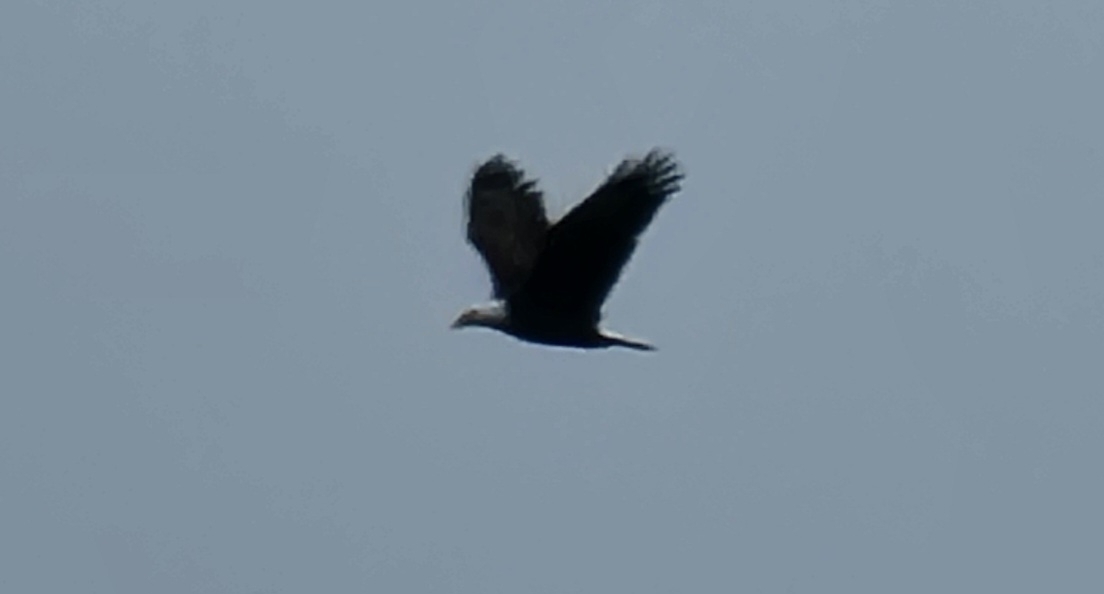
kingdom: Animalia
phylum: Chordata
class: Aves
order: Accipitriformes
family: Accipitridae
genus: Haliaeetus
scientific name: Haliaeetus leucocephalus
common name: Bald eagle
